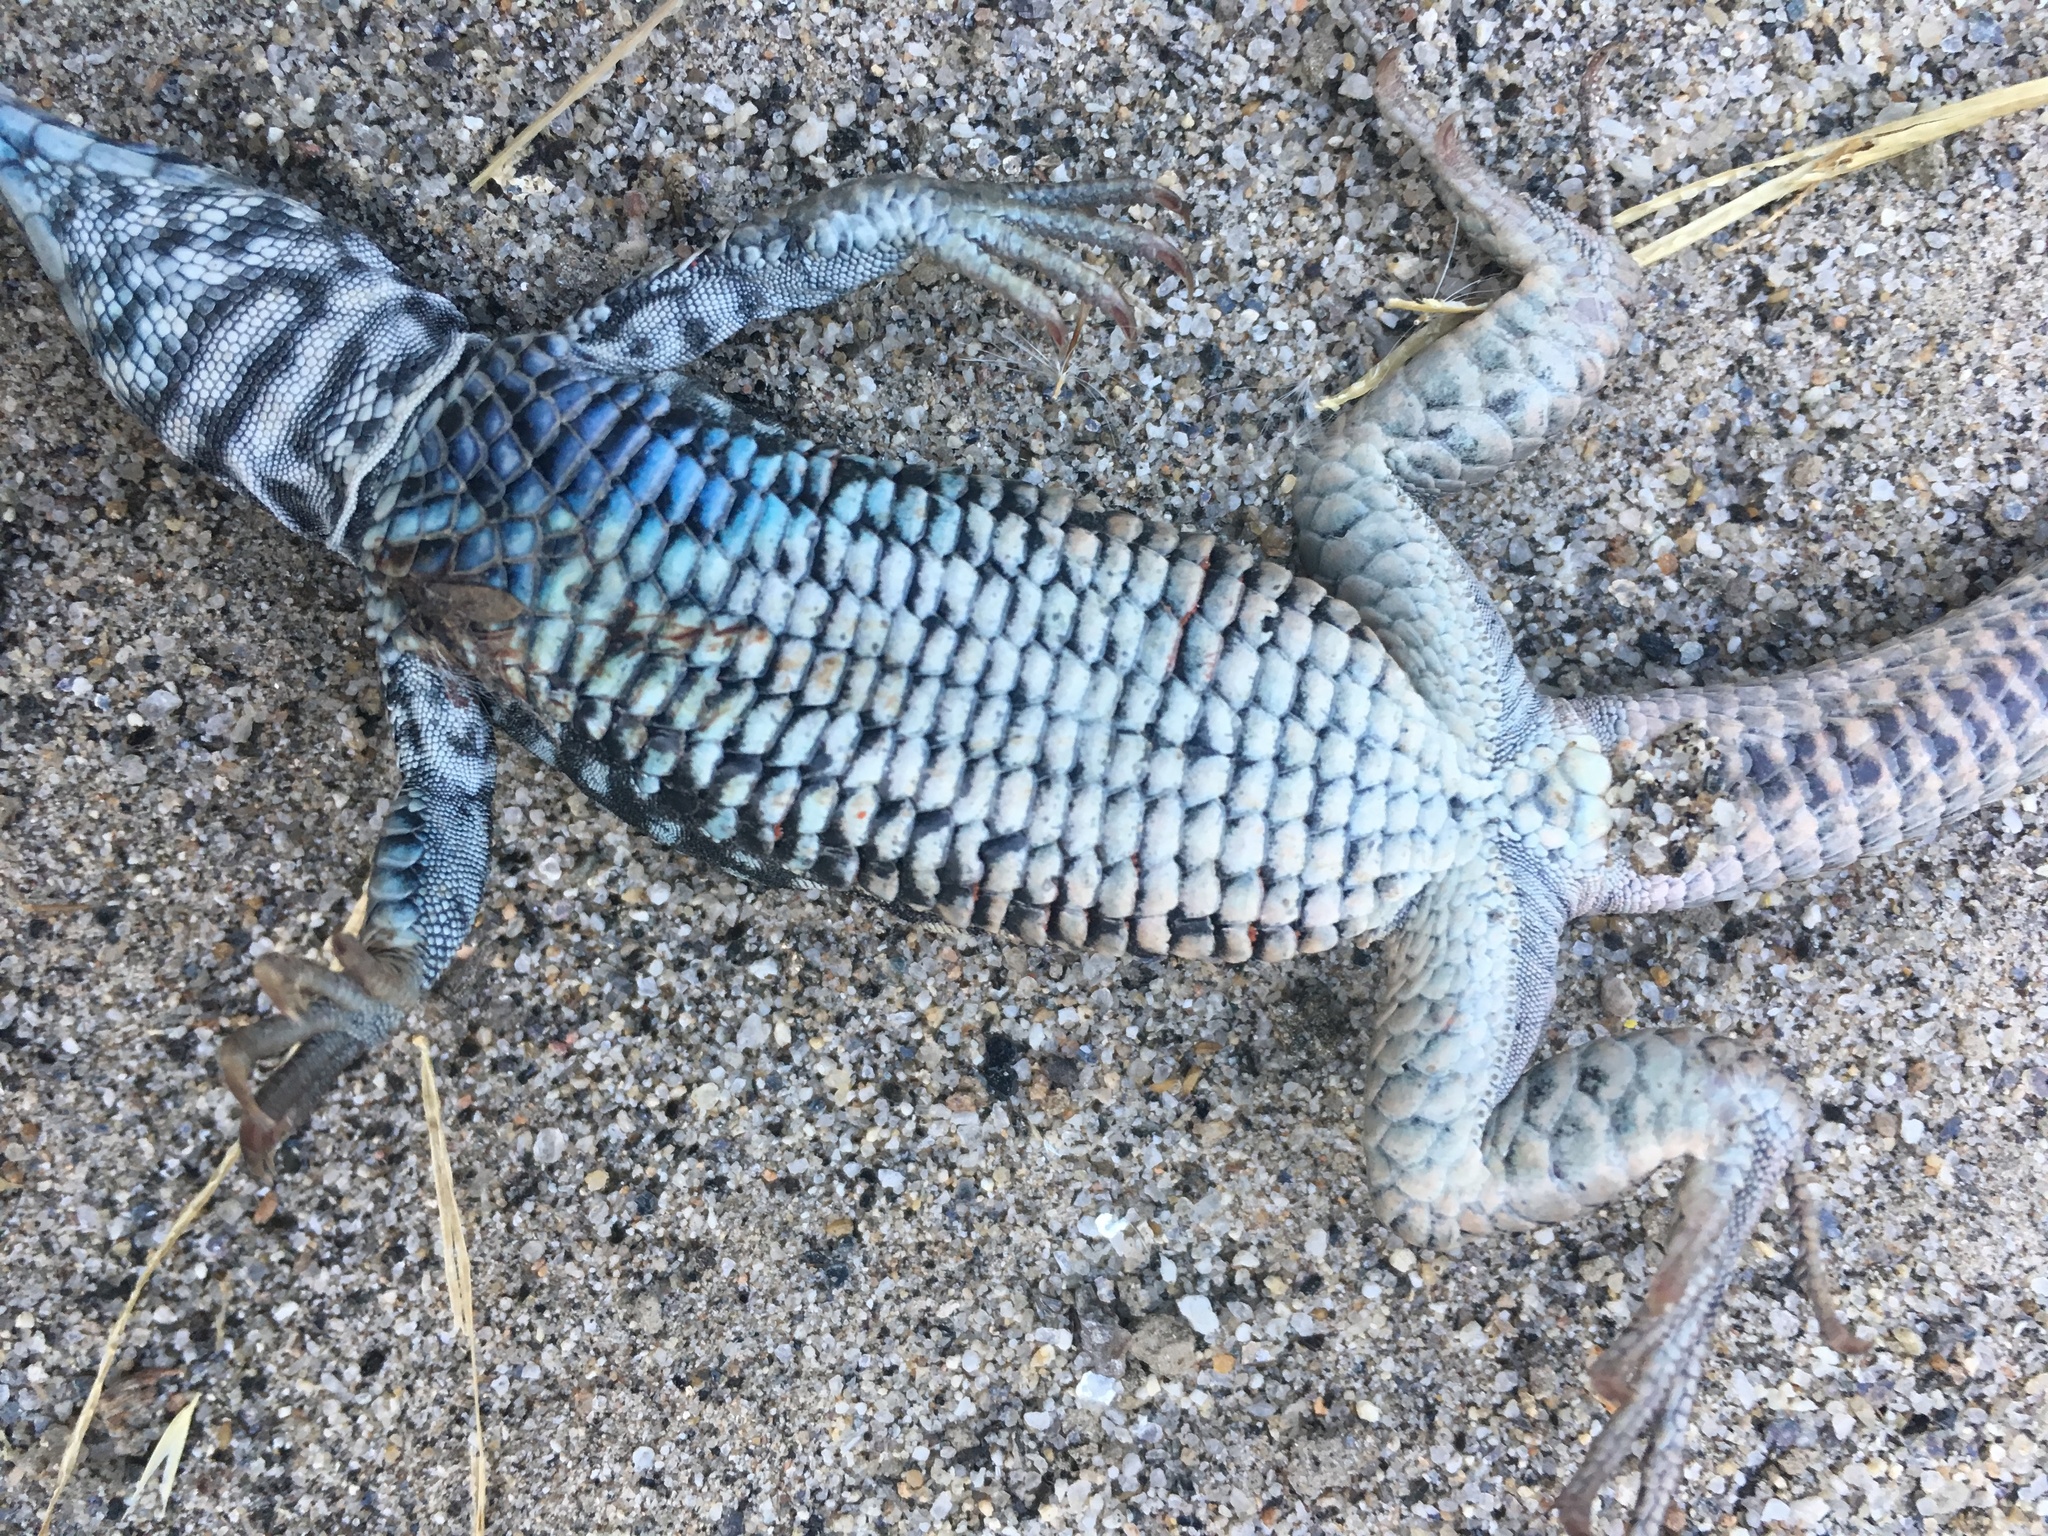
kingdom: Animalia
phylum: Chordata
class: Squamata
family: Teiidae
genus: Aspidoscelis
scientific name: Aspidoscelis tigris
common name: Tiger whiptail
